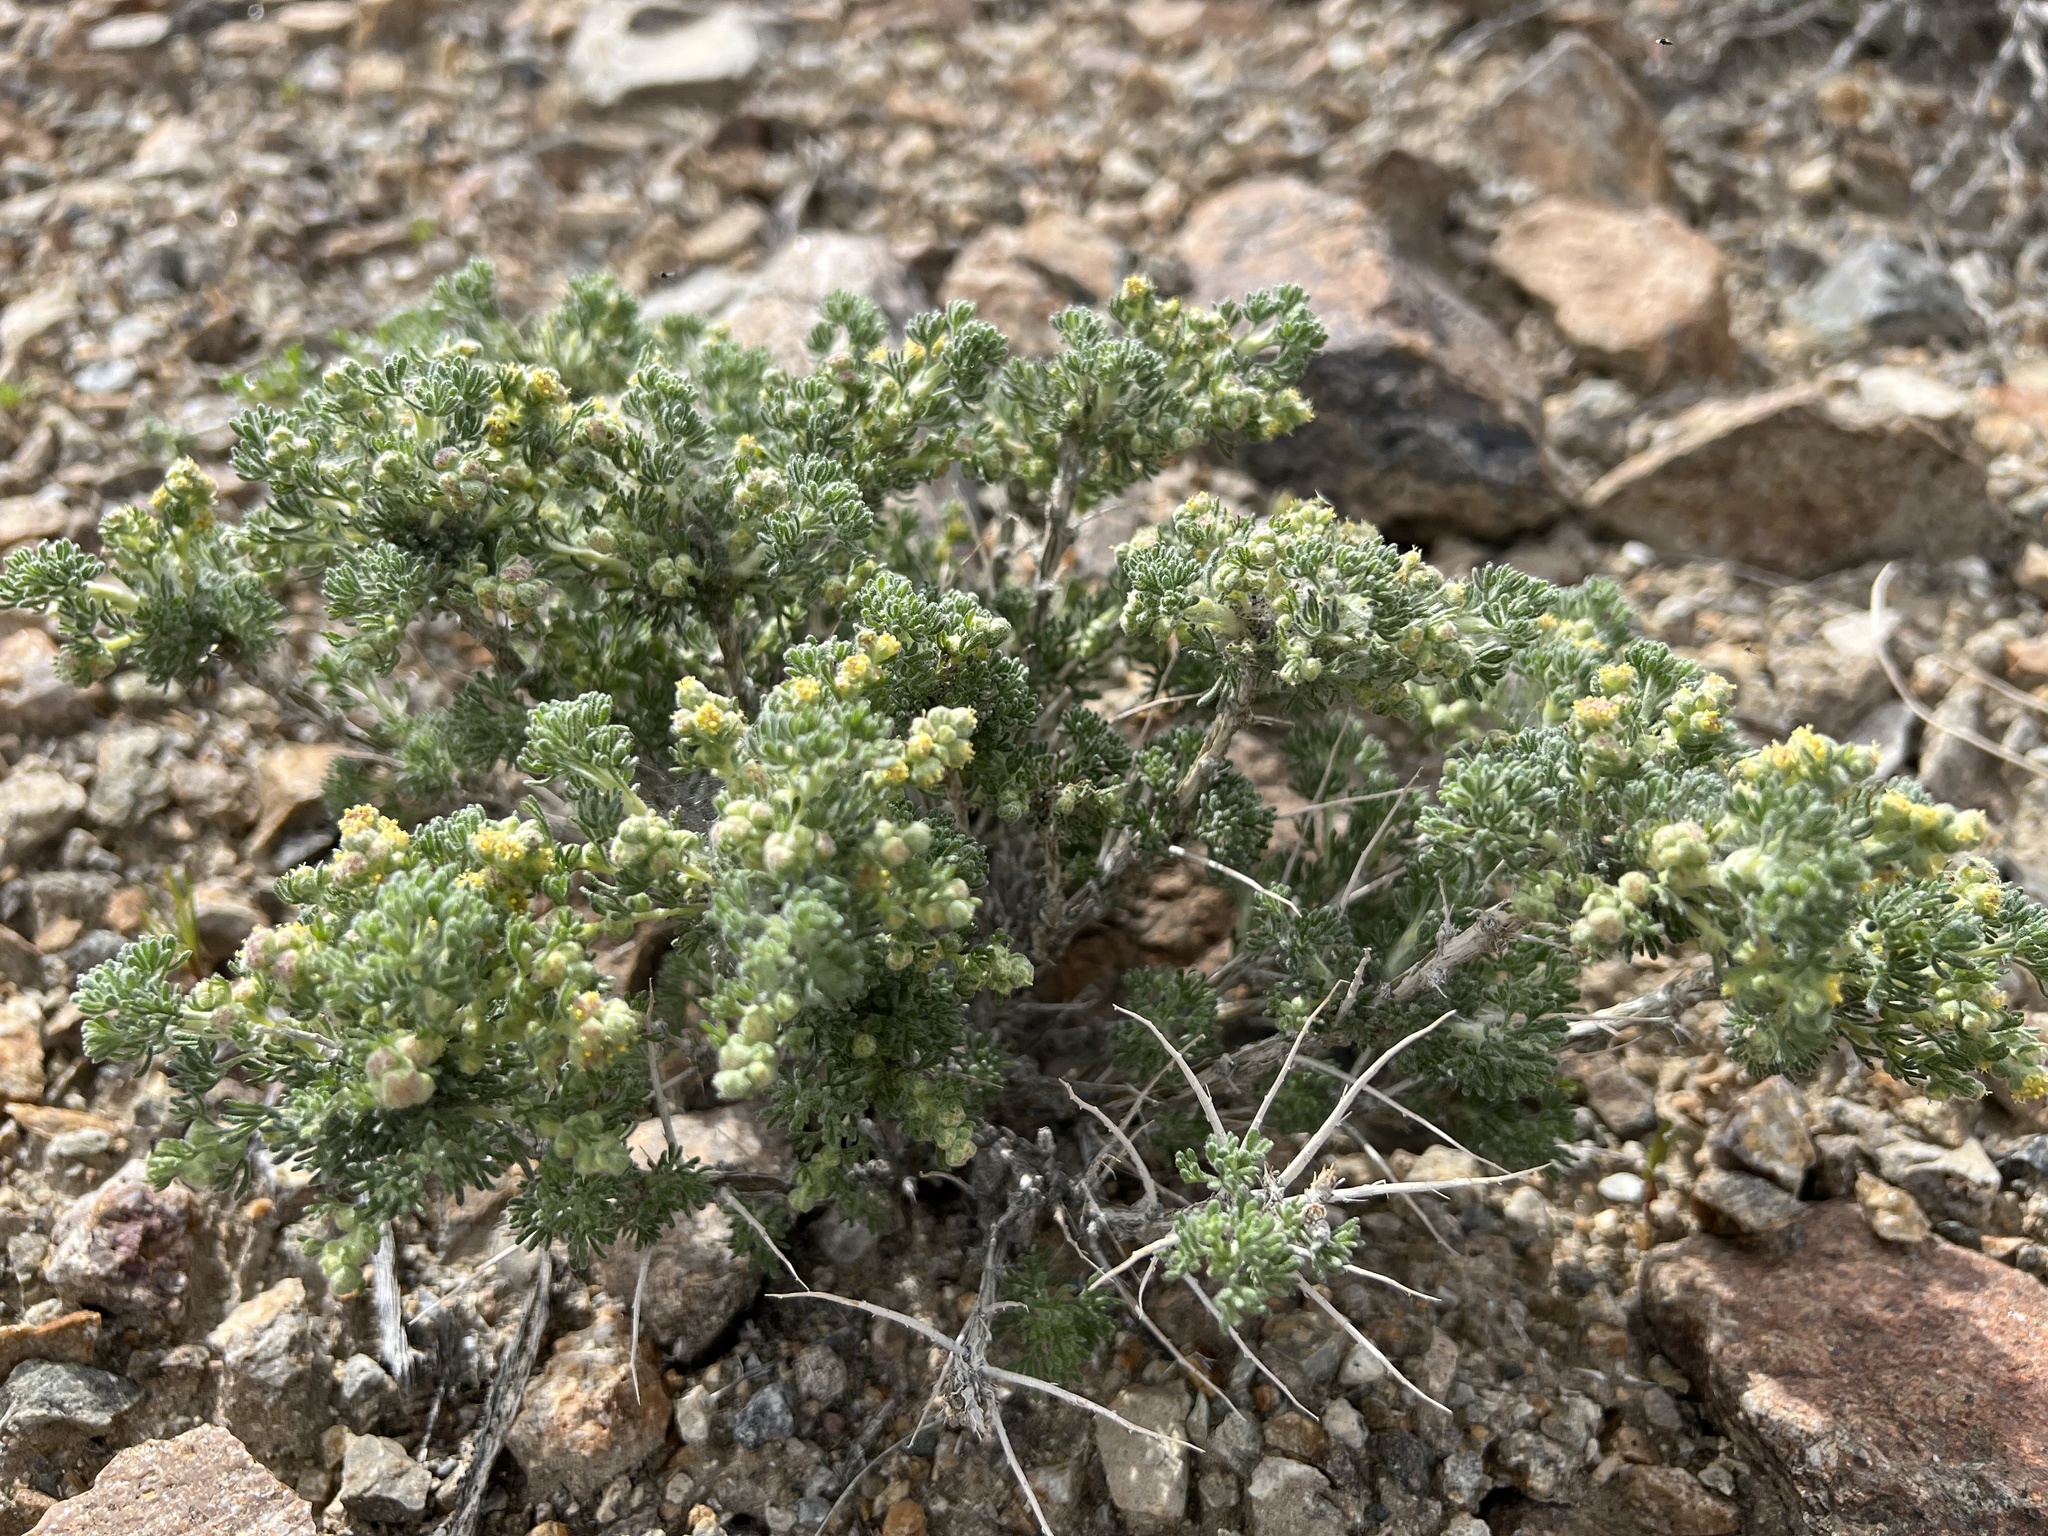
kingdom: Plantae
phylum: Tracheophyta
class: Magnoliopsida
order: Asterales
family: Asteraceae
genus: Artemisia
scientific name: Artemisia spinescens
